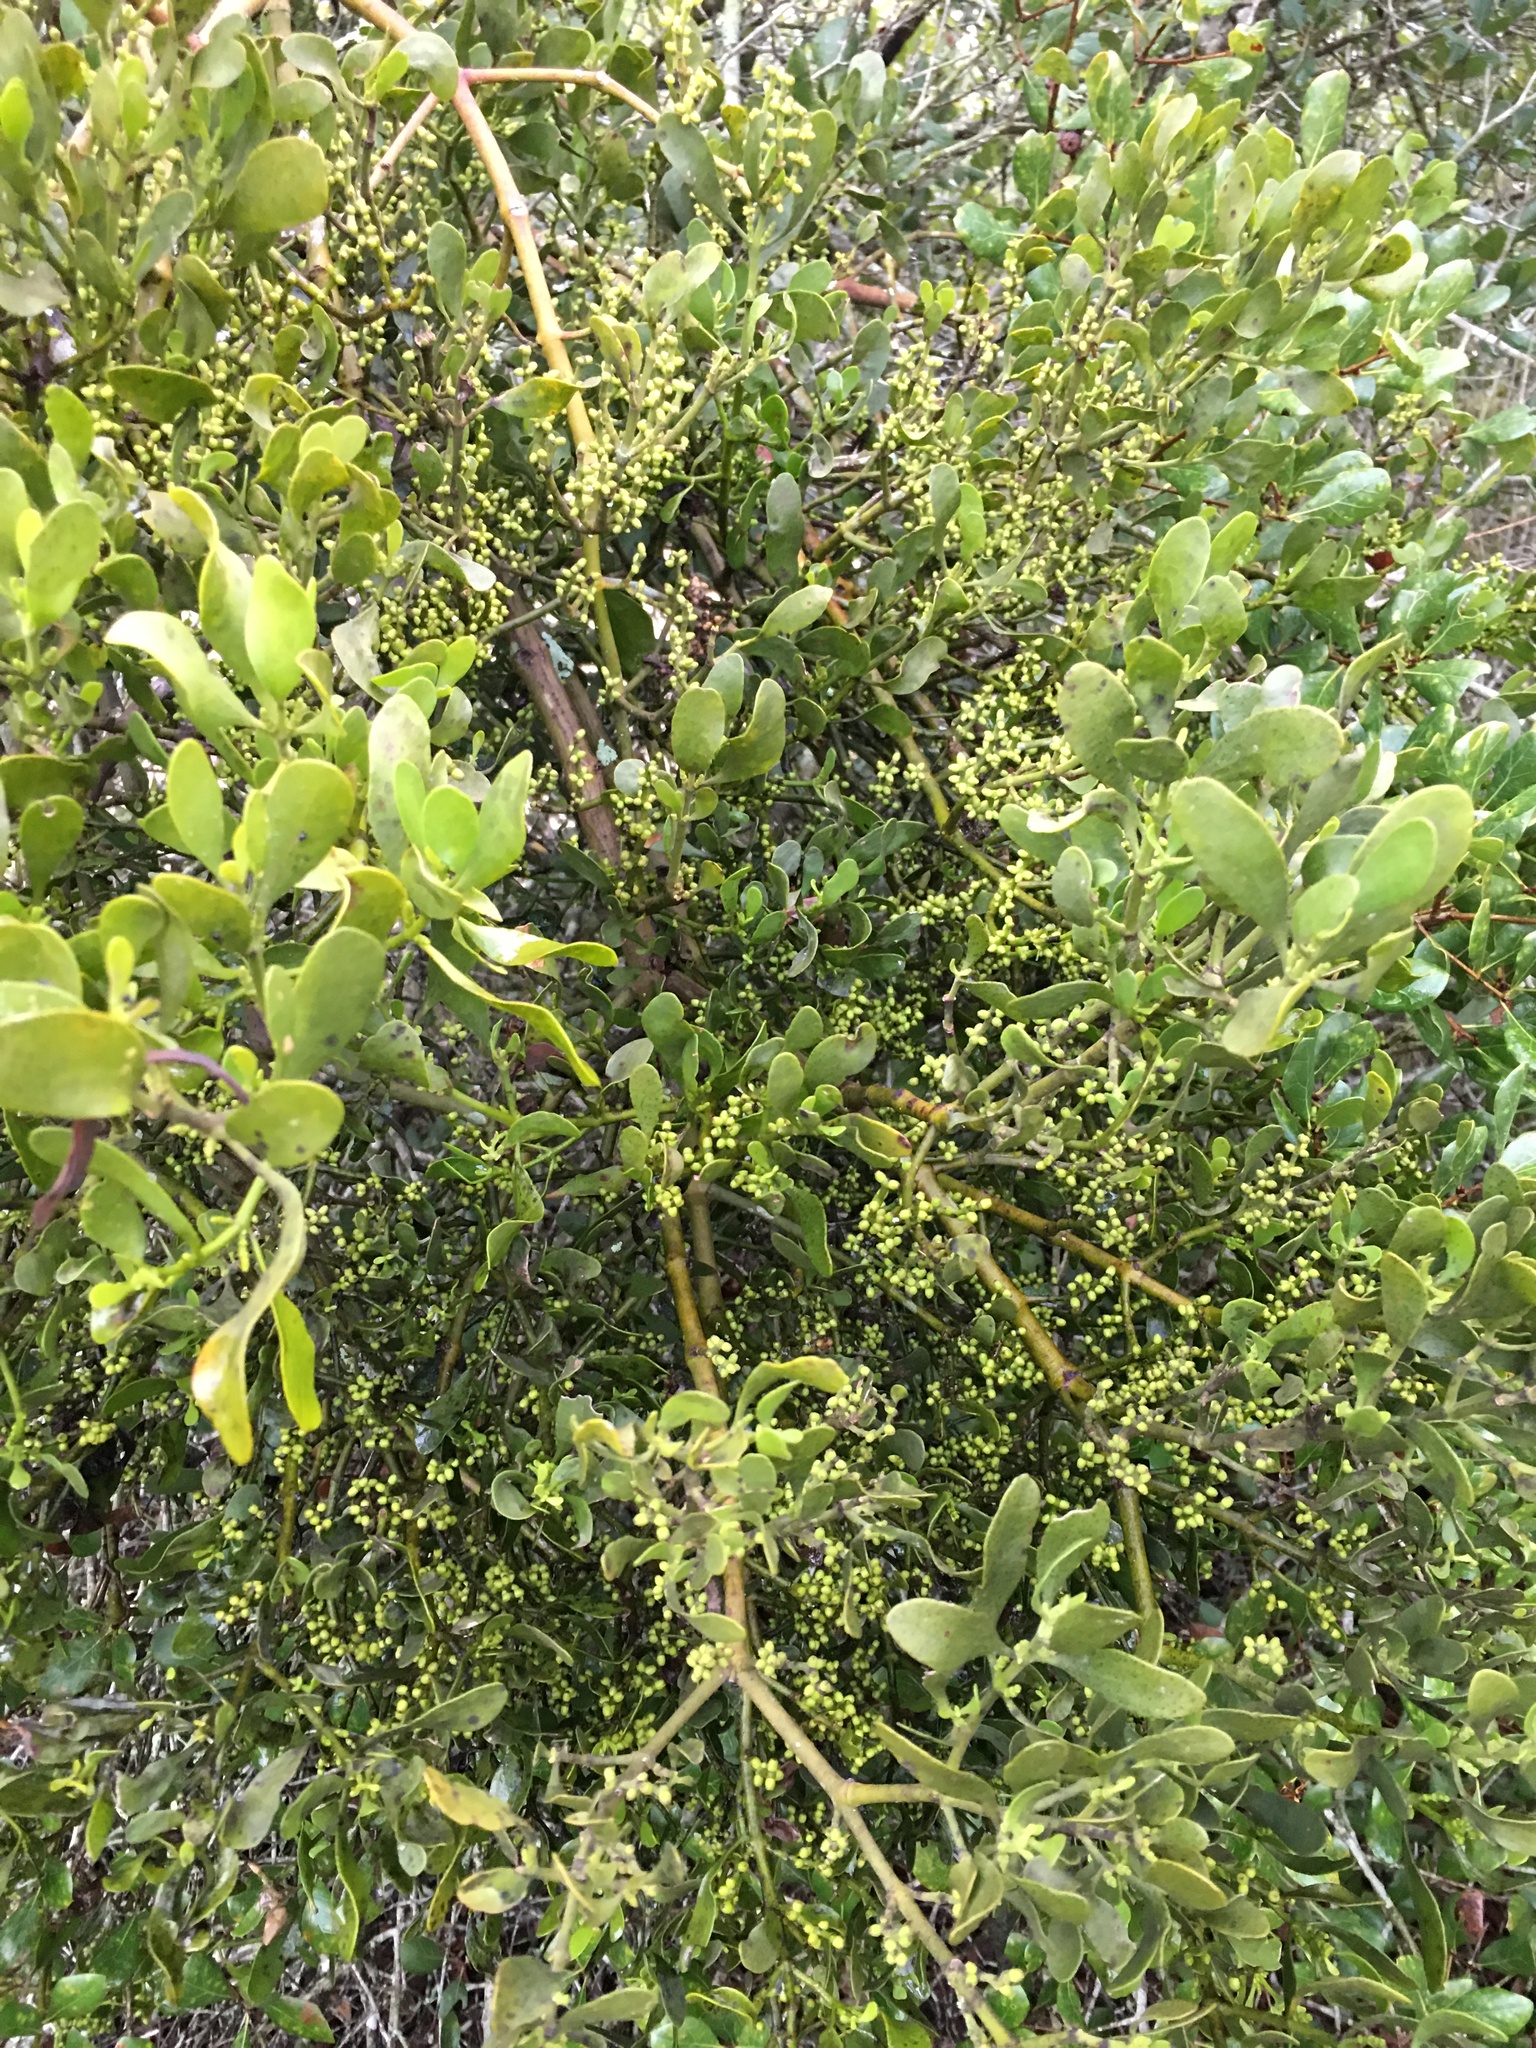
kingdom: Plantae
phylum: Tracheophyta
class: Magnoliopsida
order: Santalales
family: Viscaceae
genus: Phoradendron
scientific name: Phoradendron leucarpum
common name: Pacific mistletoe
